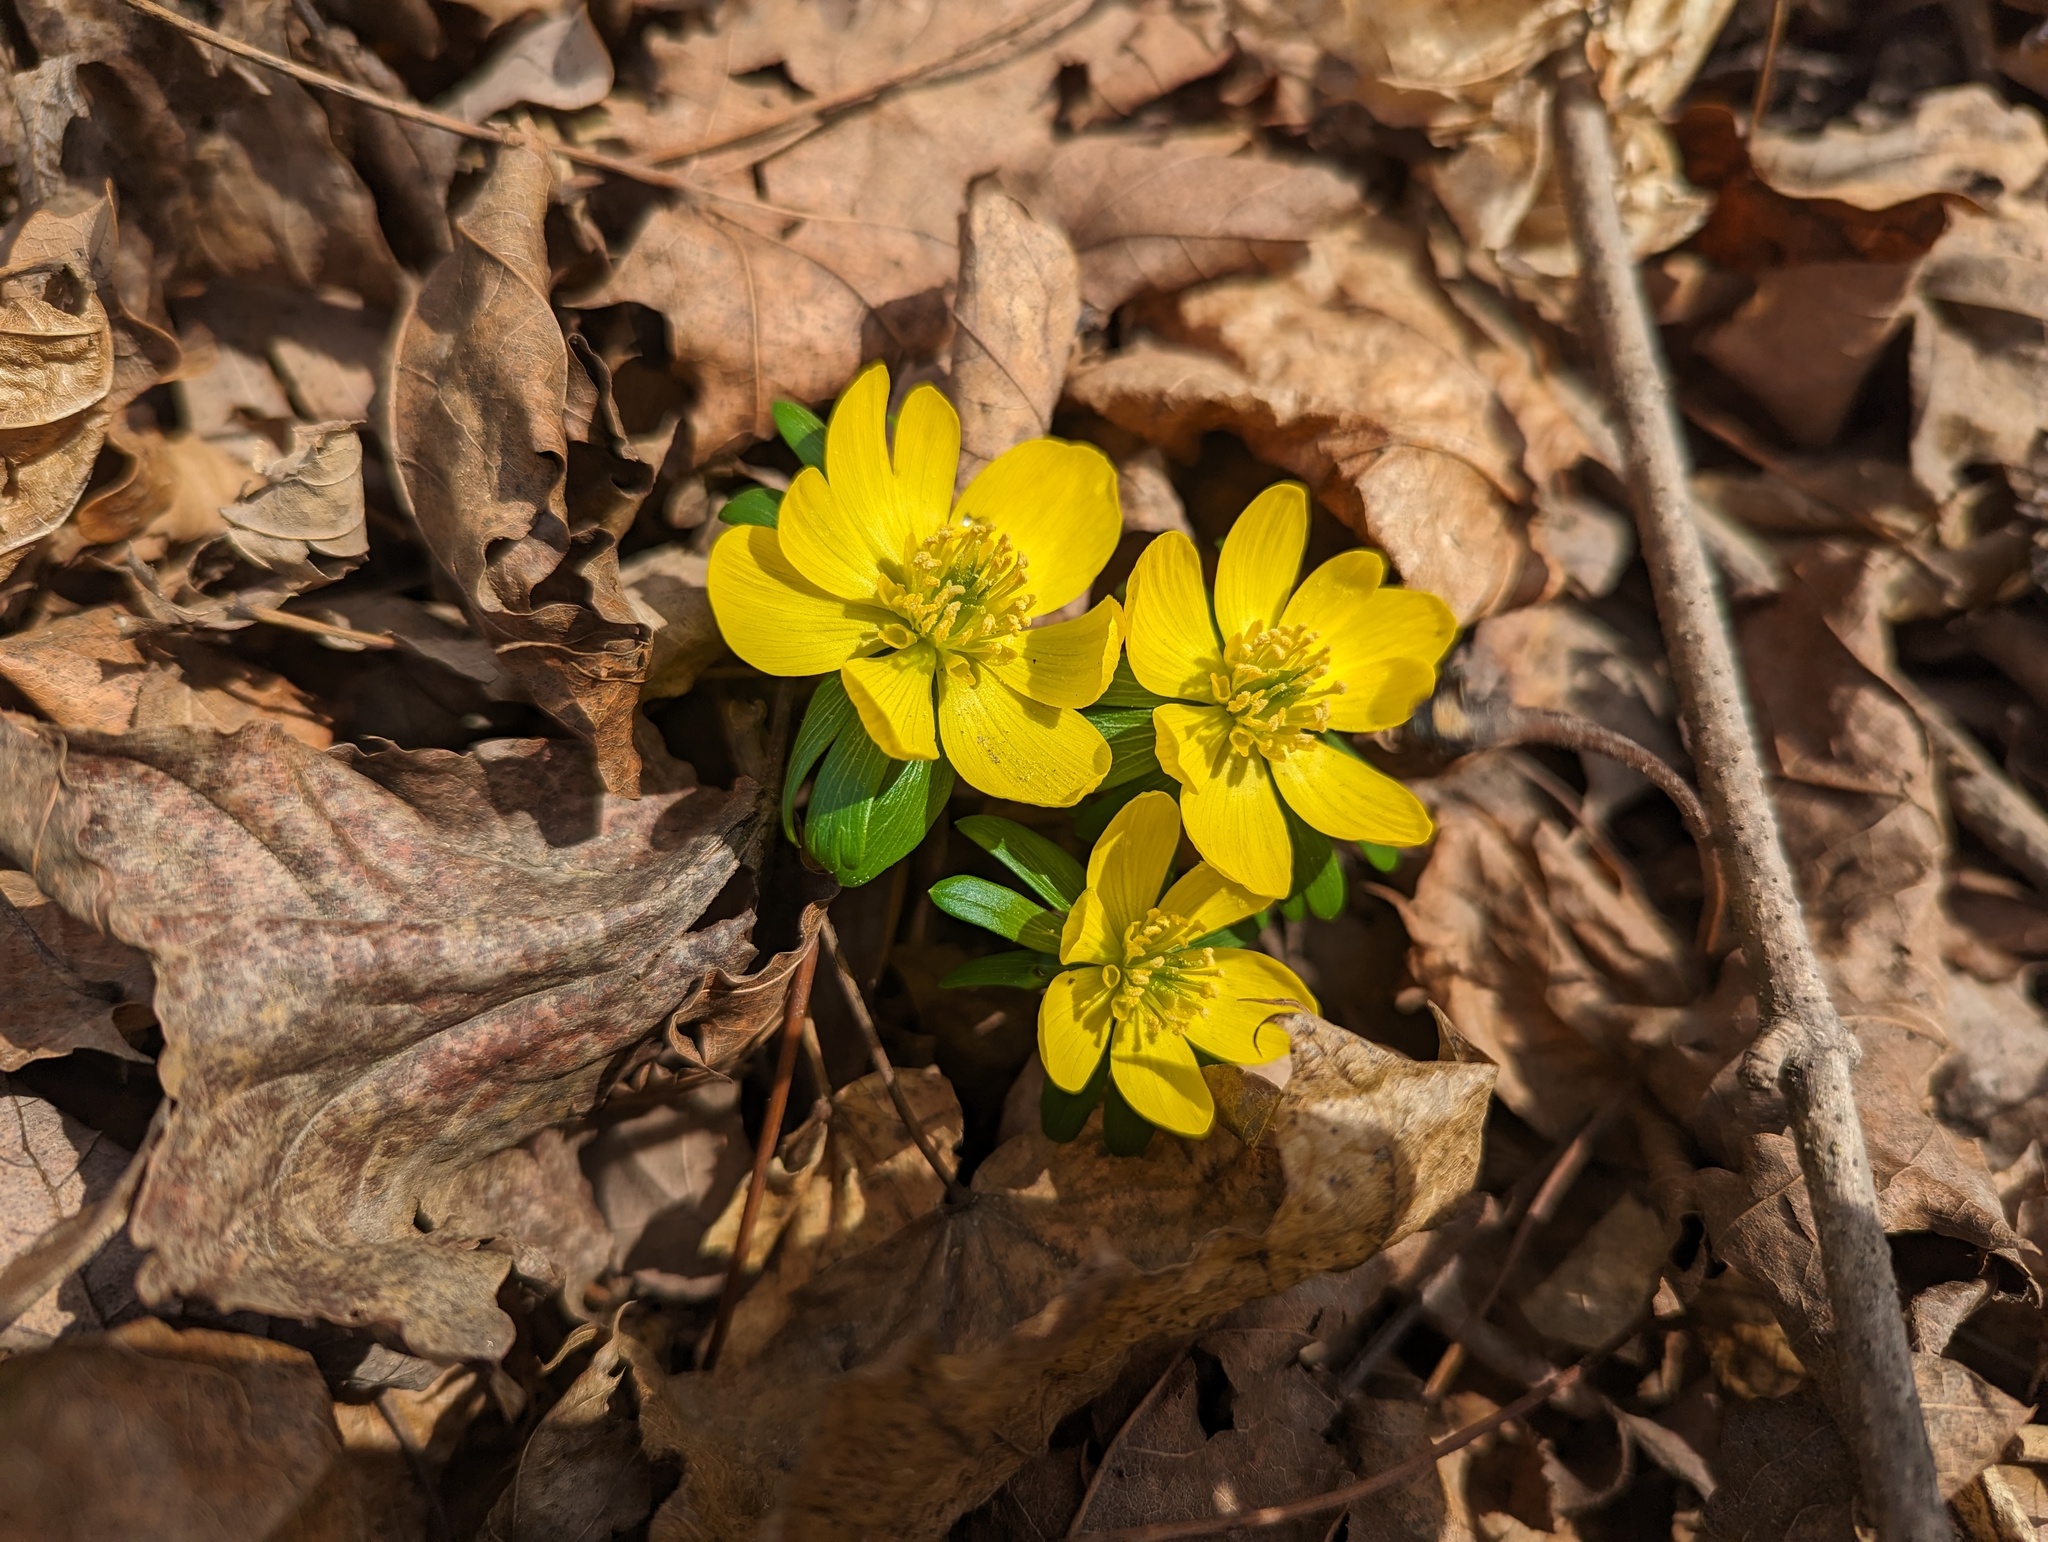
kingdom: Plantae
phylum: Tracheophyta
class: Magnoliopsida
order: Ranunculales
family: Ranunculaceae
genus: Eranthis
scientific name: Eranthis hyemalis
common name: Winter aconite
